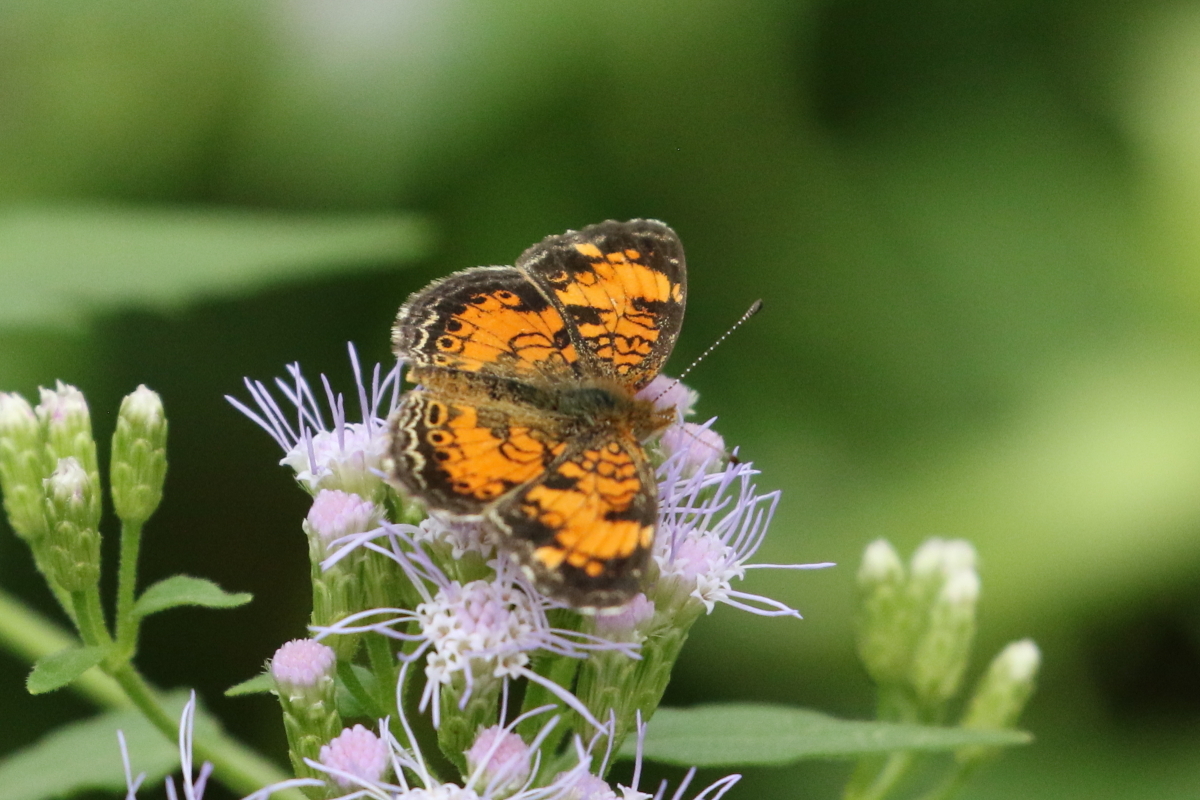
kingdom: Animalia
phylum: Arthropoda
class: Insecta
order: Lepidoptera
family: Nymphalidae
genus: Phyciodes
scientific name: Phyciodes tharos
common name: Pearl crescent
